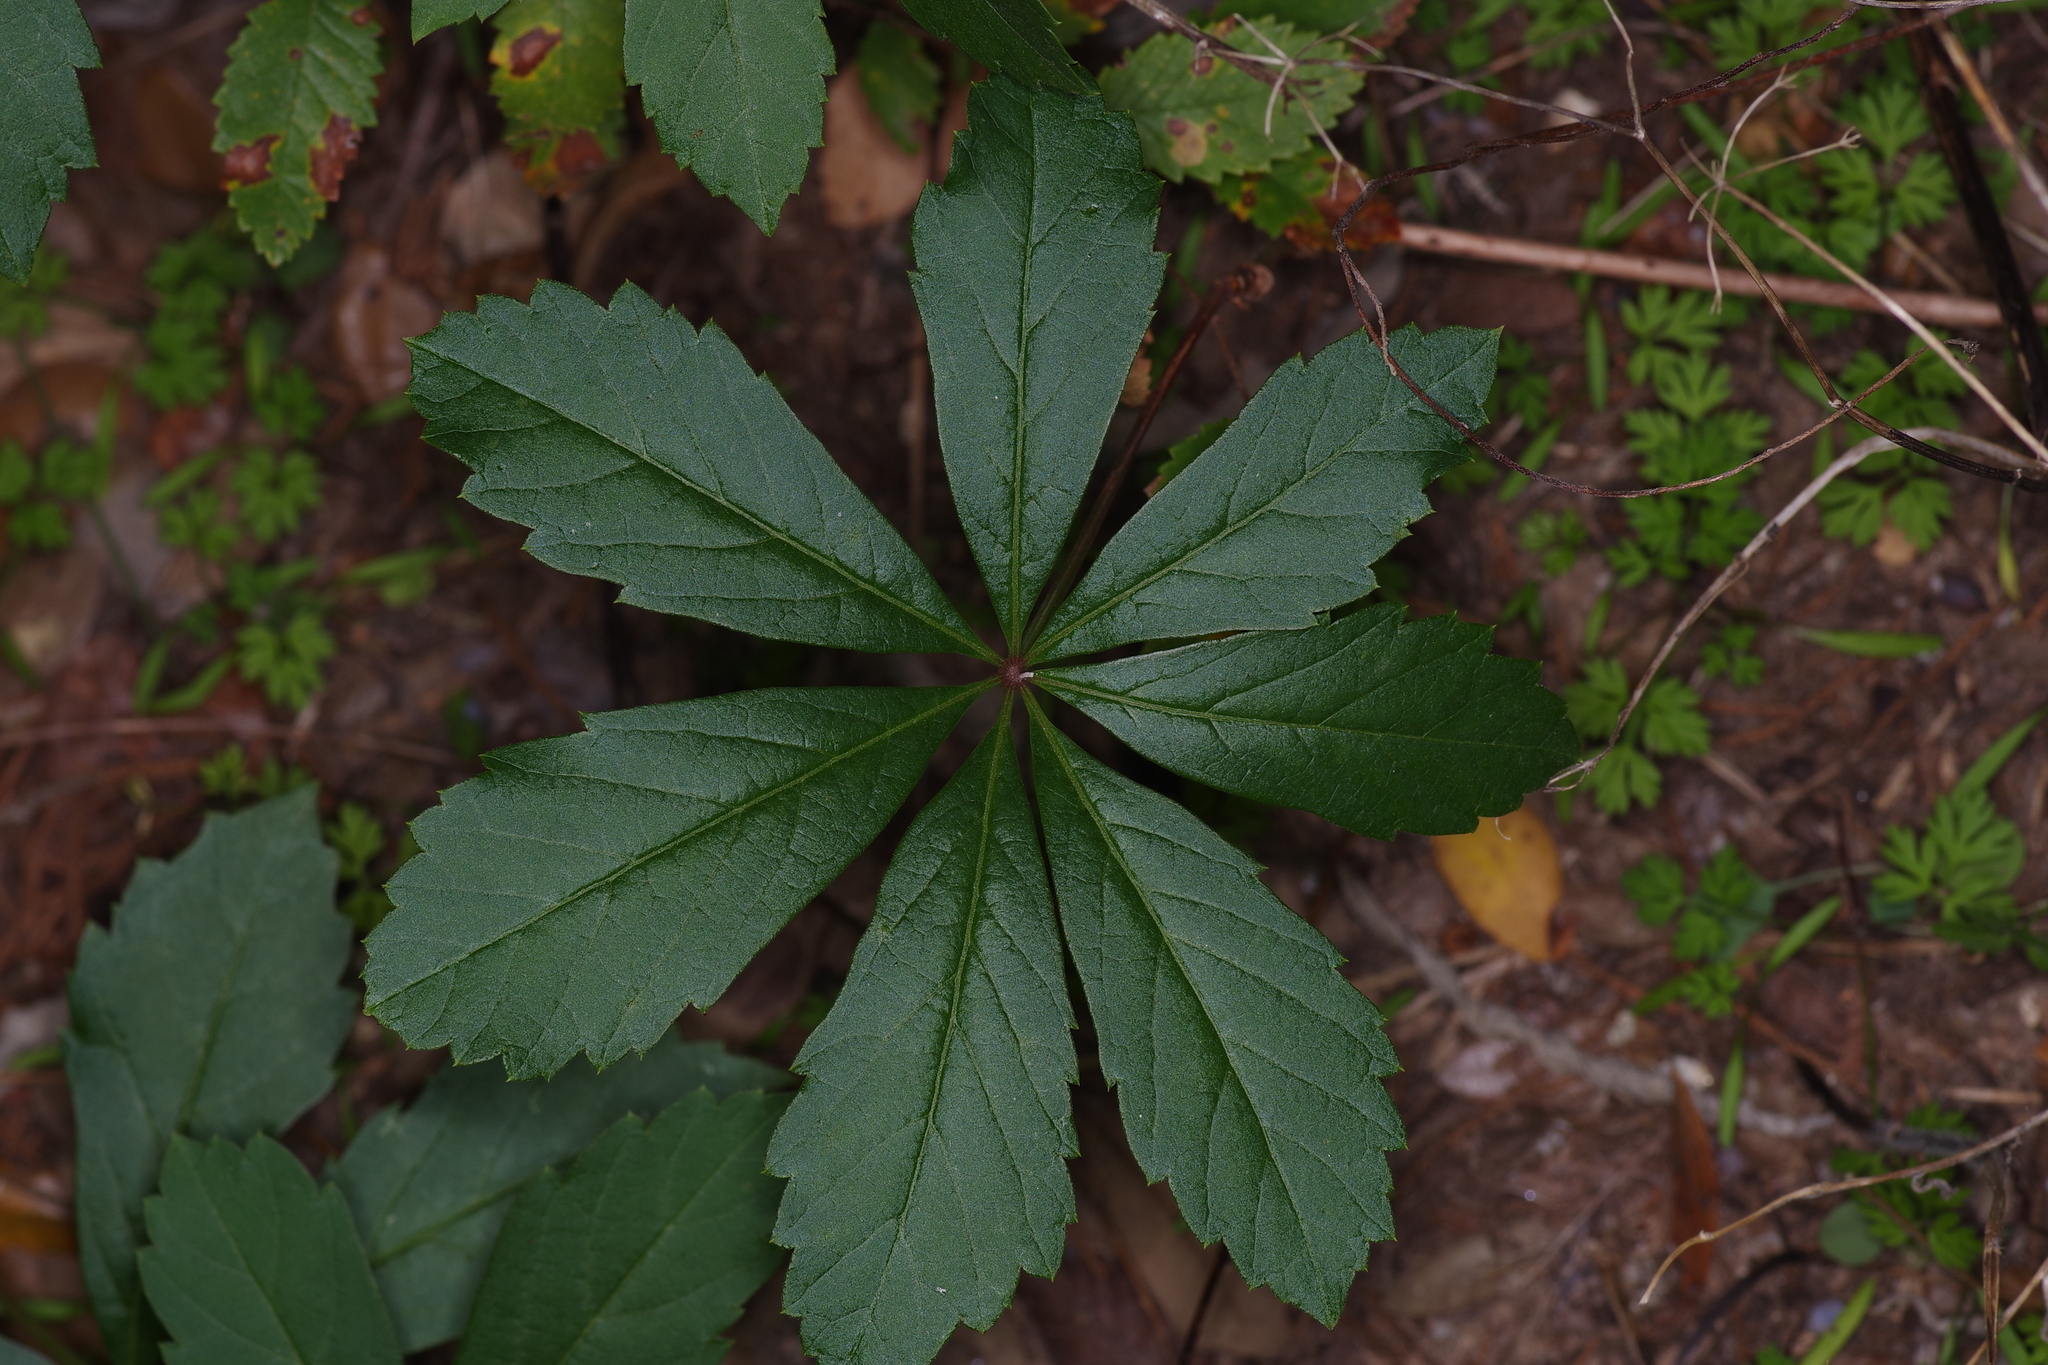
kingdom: Plantae
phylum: Tracheophyta
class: Magnoliopsida
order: Vitales
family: Vitaceae
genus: Parthenocissus
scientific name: Parthenocissus heptaphylla
